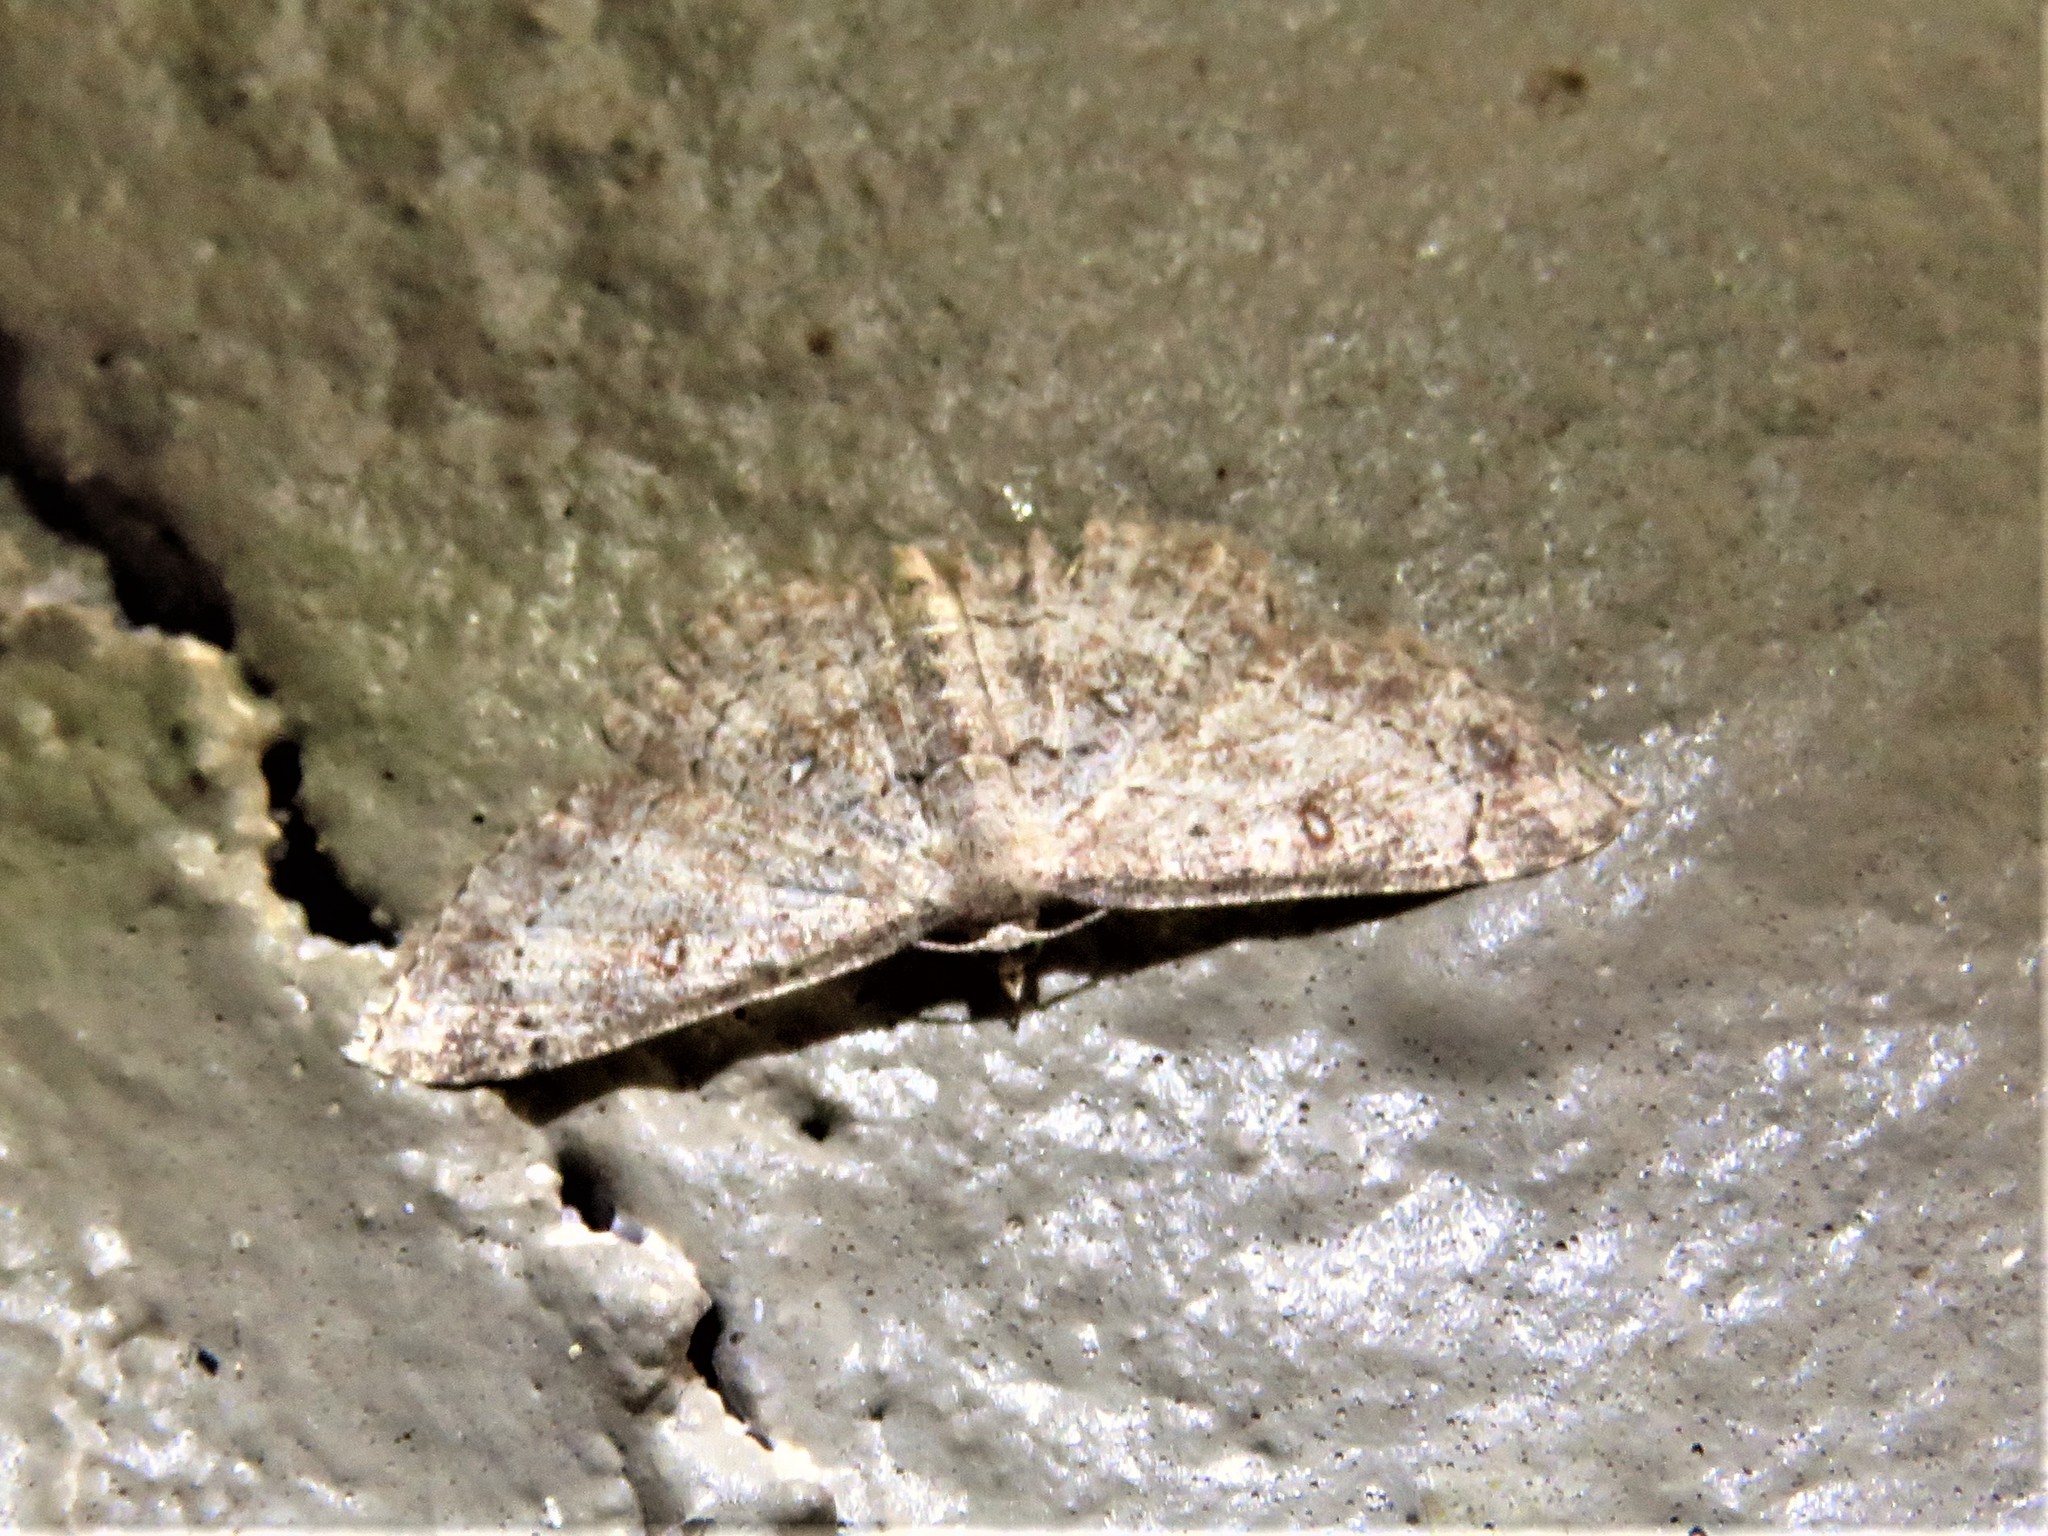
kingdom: Animalia
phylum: Arthropoda
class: Insecta
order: Lepidoptera
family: Geometridae
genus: Cyclophora
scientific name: Cyclophora nanaria
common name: Cankerworm
